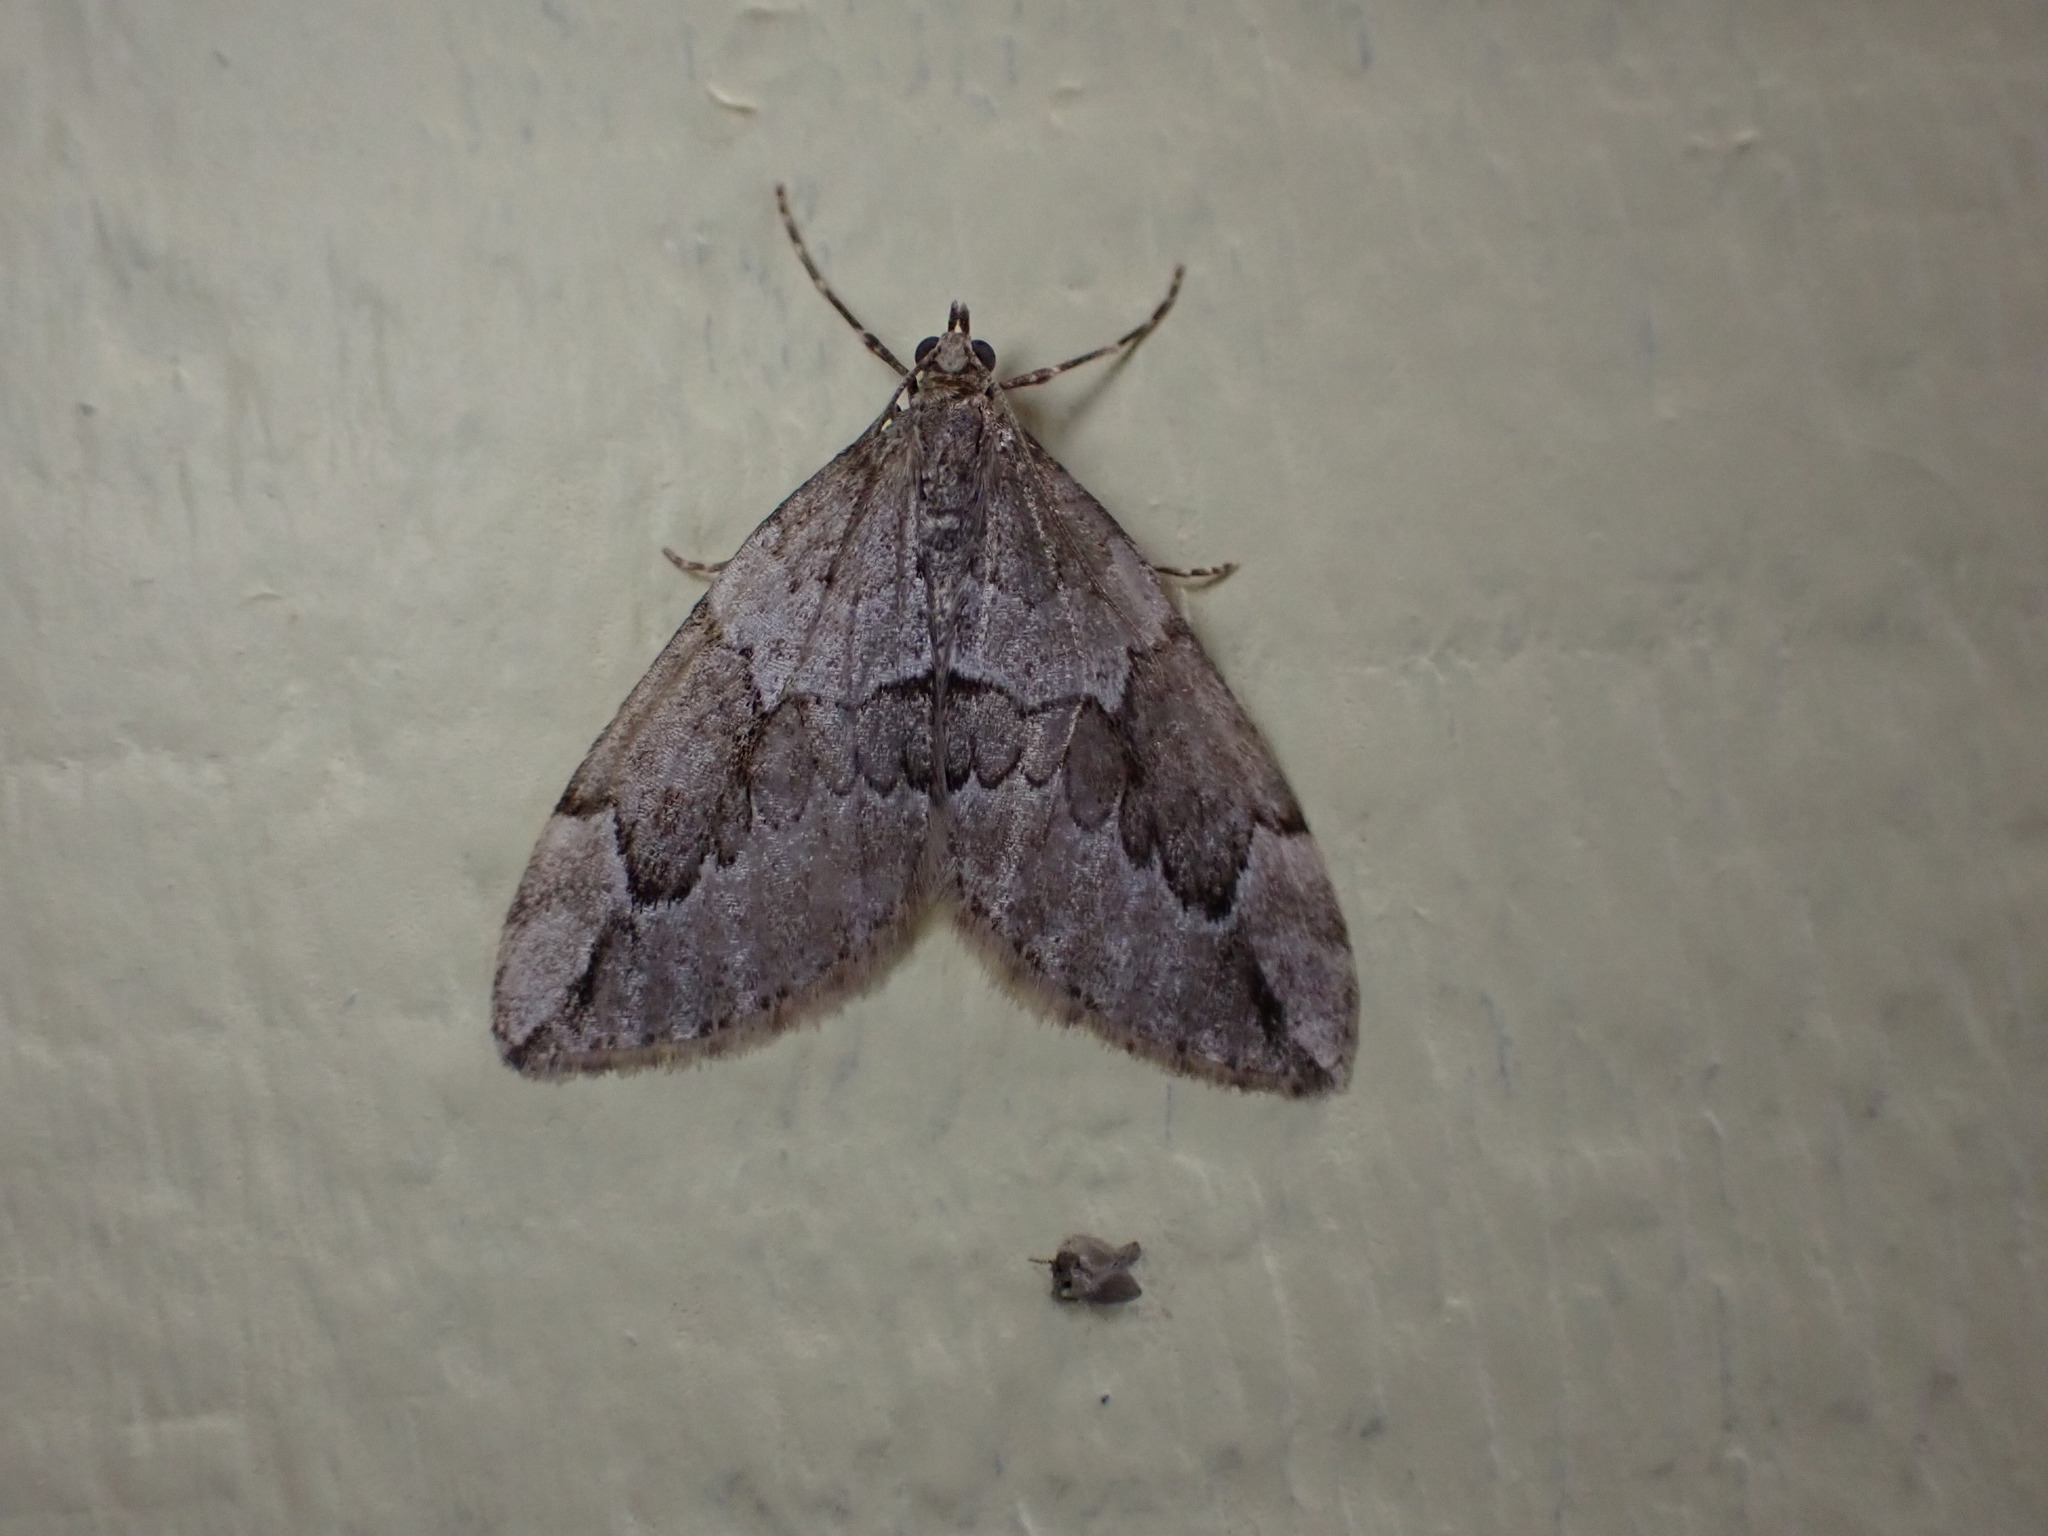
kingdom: Animalia
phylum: Arthropoda
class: Insecta
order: Lepidoptera
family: Geometridae
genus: Thera
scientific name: Thera juniperata
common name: Juniper carpet
